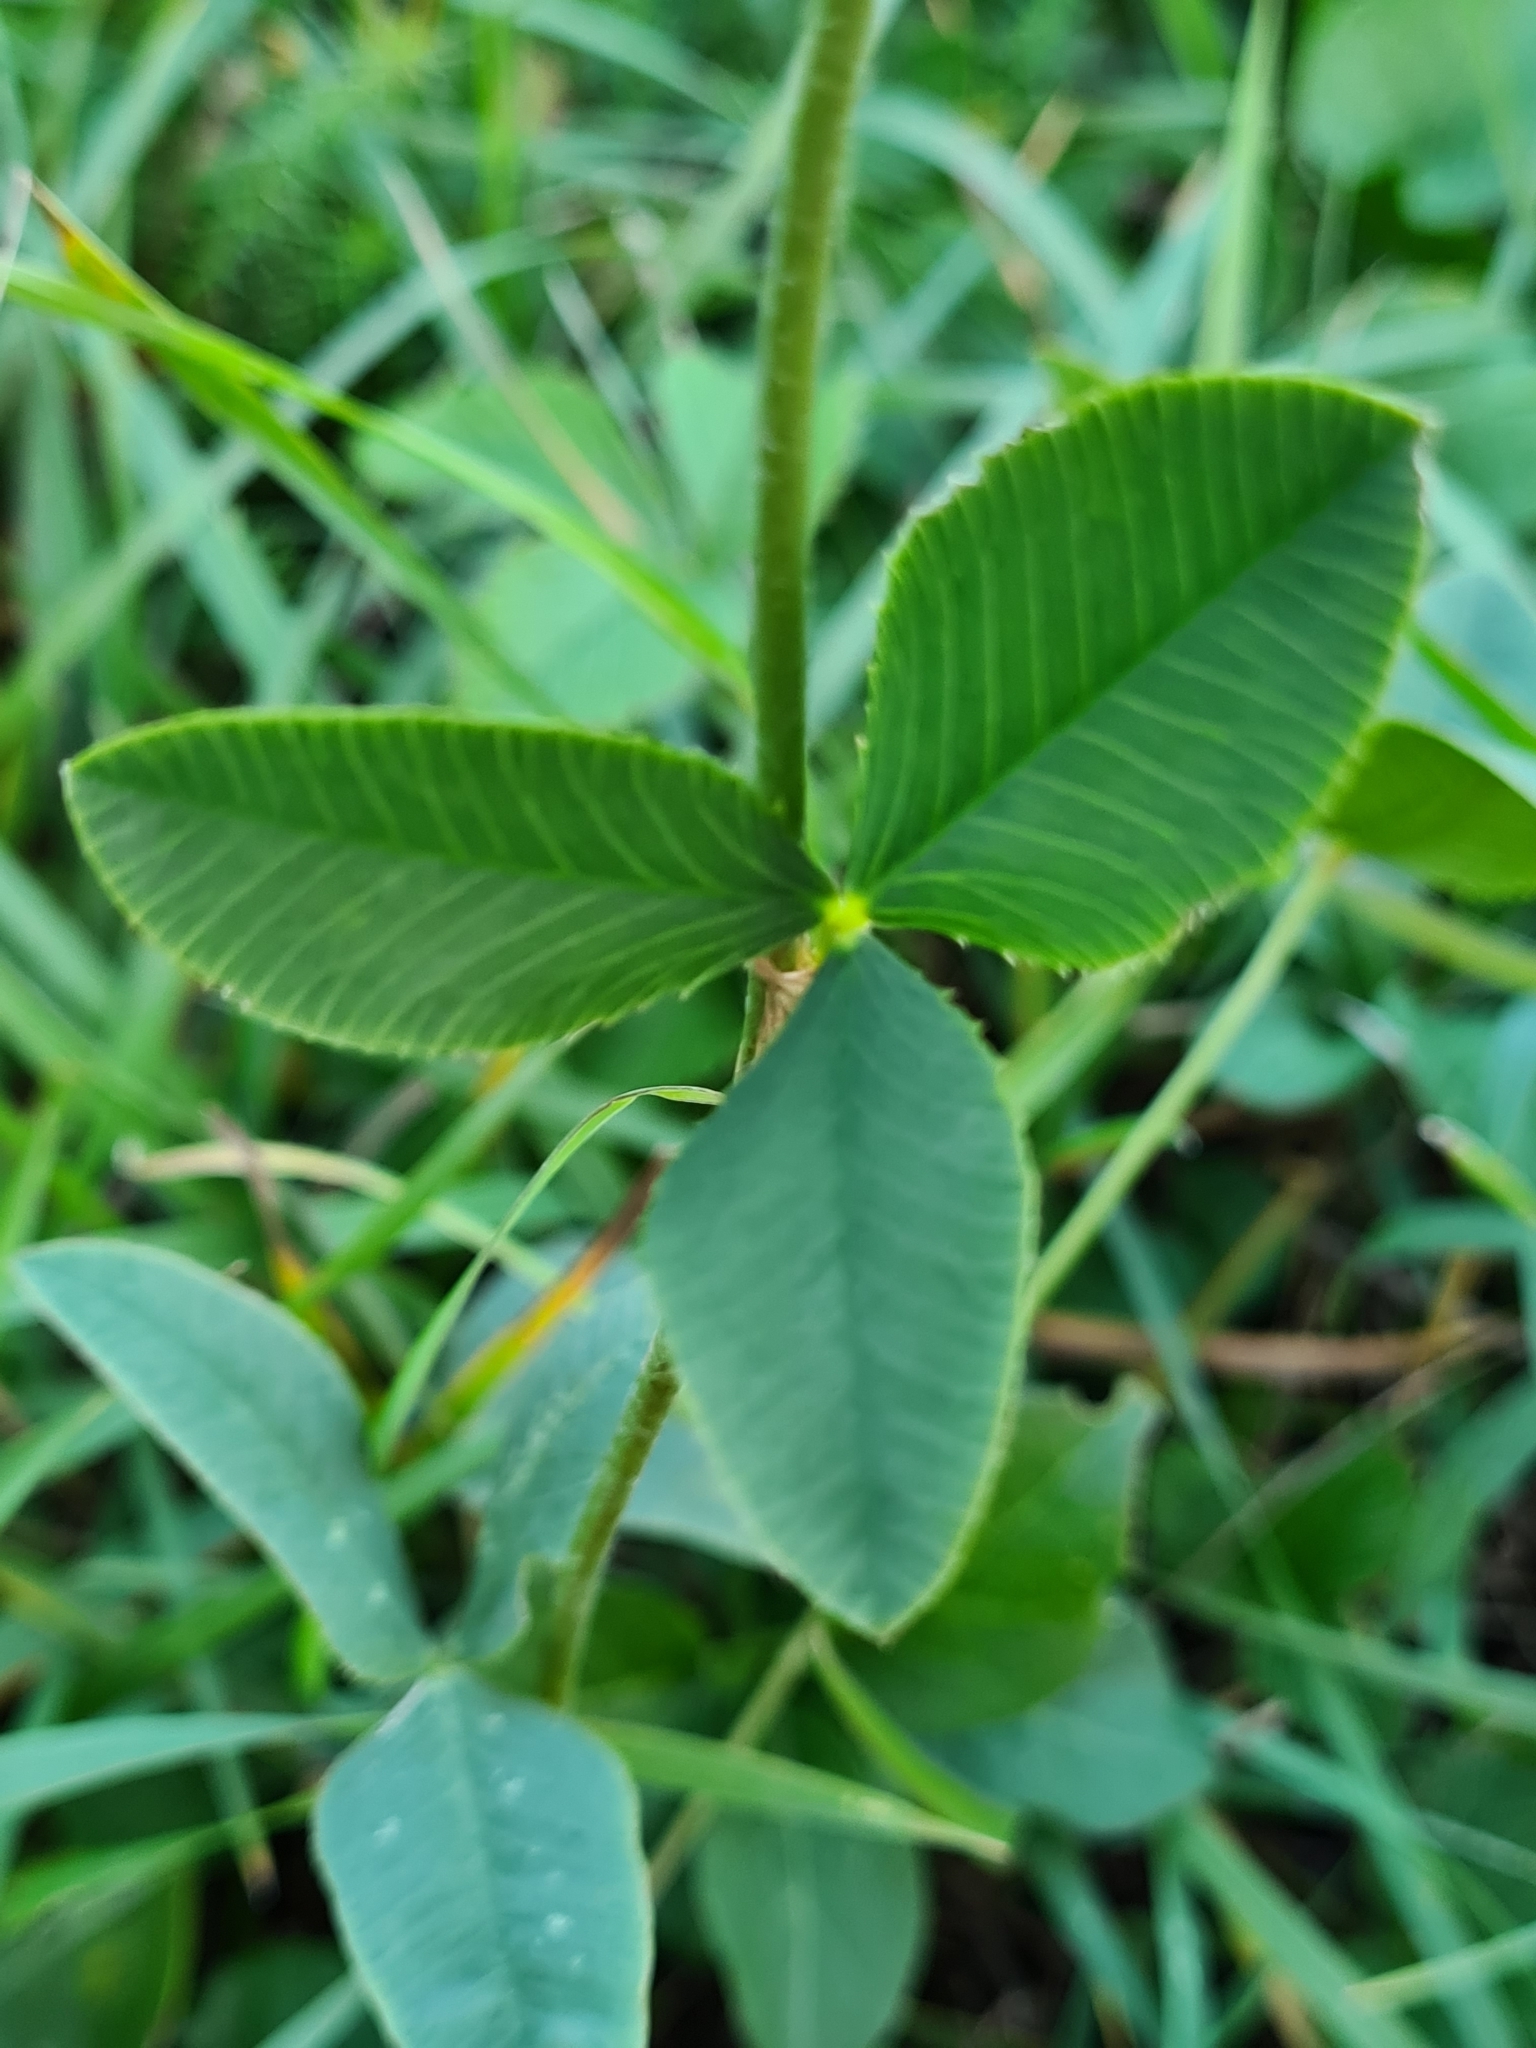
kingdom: Plantae
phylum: Tracheophyta
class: Magnoliopsida
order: Fabales
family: Fabaceae
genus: Trifolium
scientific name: Trifolium montanum
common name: Mountain clover
